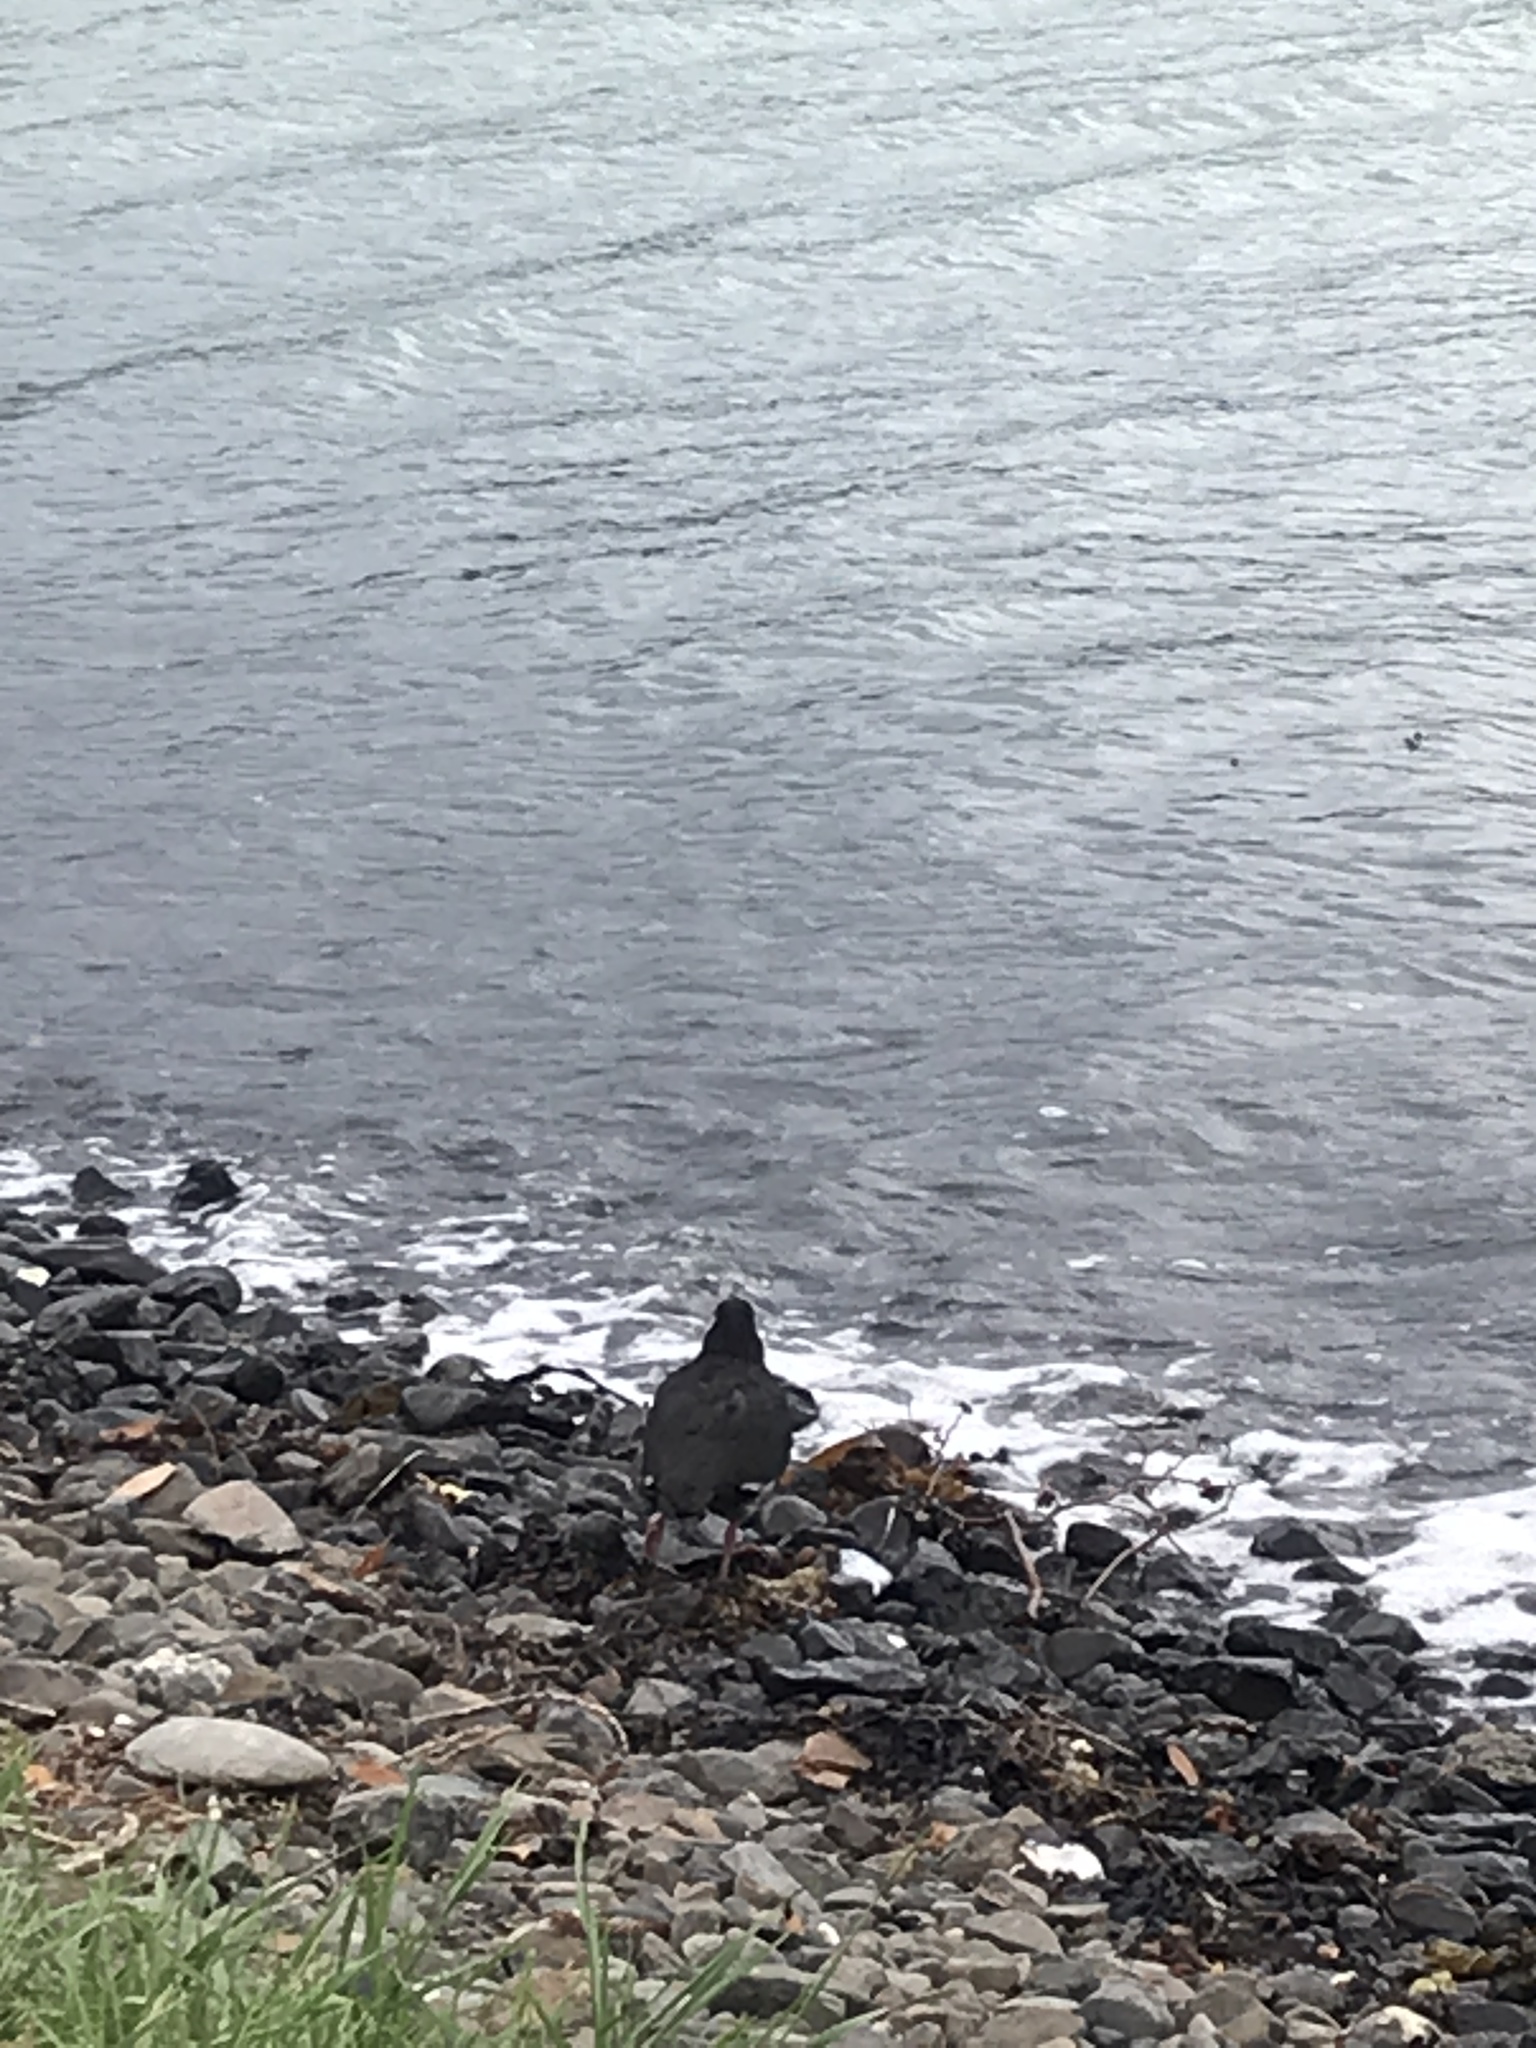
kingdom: Animalia
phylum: Chordata
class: Aves
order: Charadriiformes
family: Haematopodidae
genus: Haematopus
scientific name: Haematopus unicolor
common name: Variable oystercatcher
